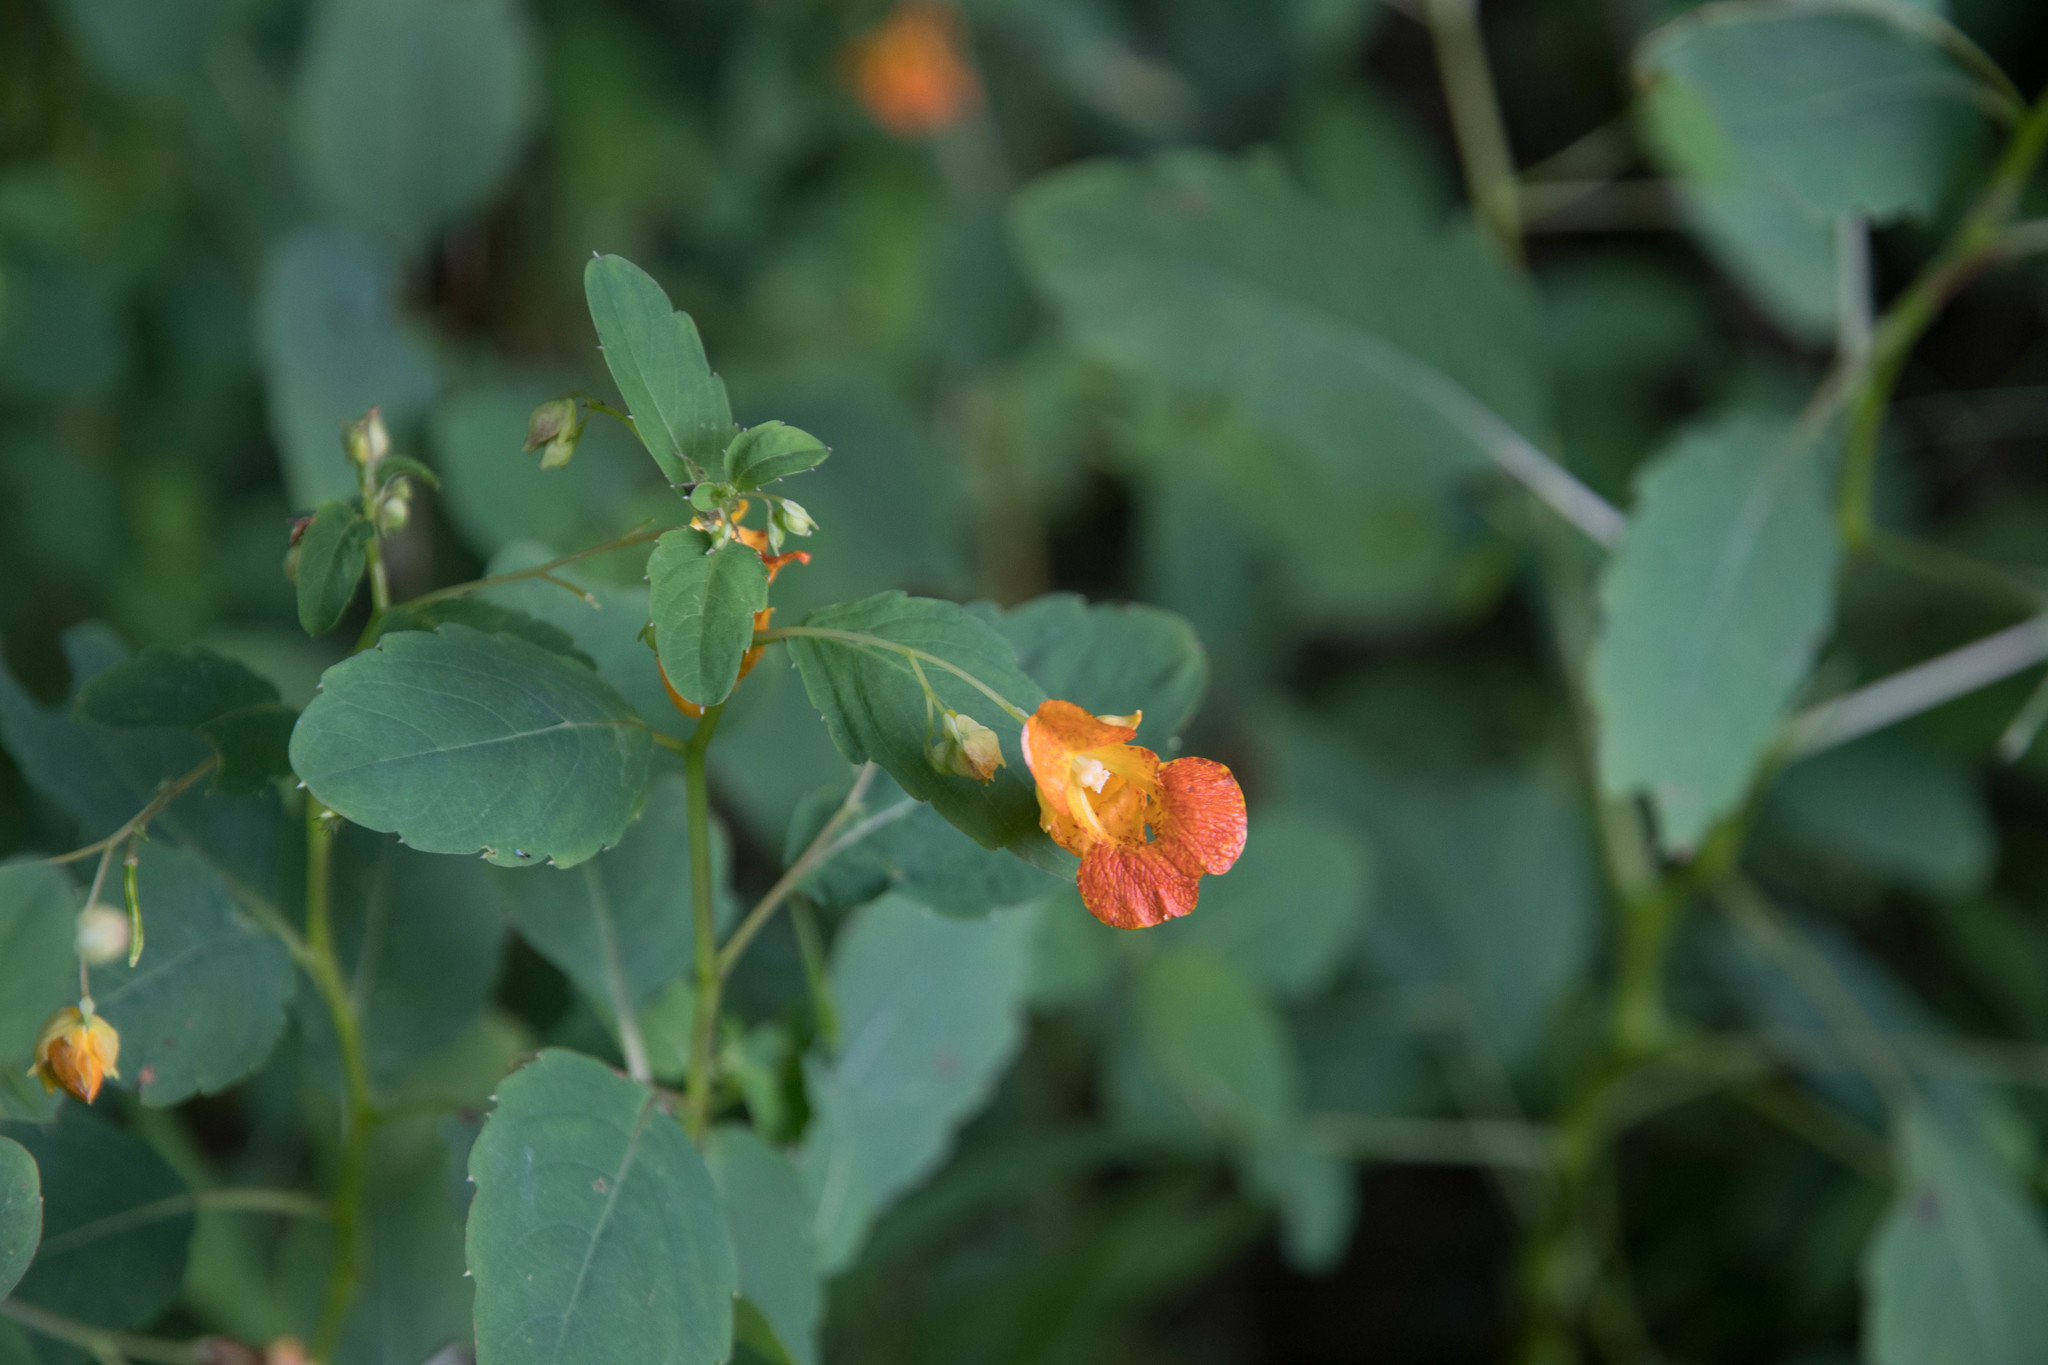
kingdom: Plantae
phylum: Tracheophyta
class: Magnoliopsida
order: Ericales
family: Balsaminaceae
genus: Impatiens
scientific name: Impatiens capensis
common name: Orange balsam
